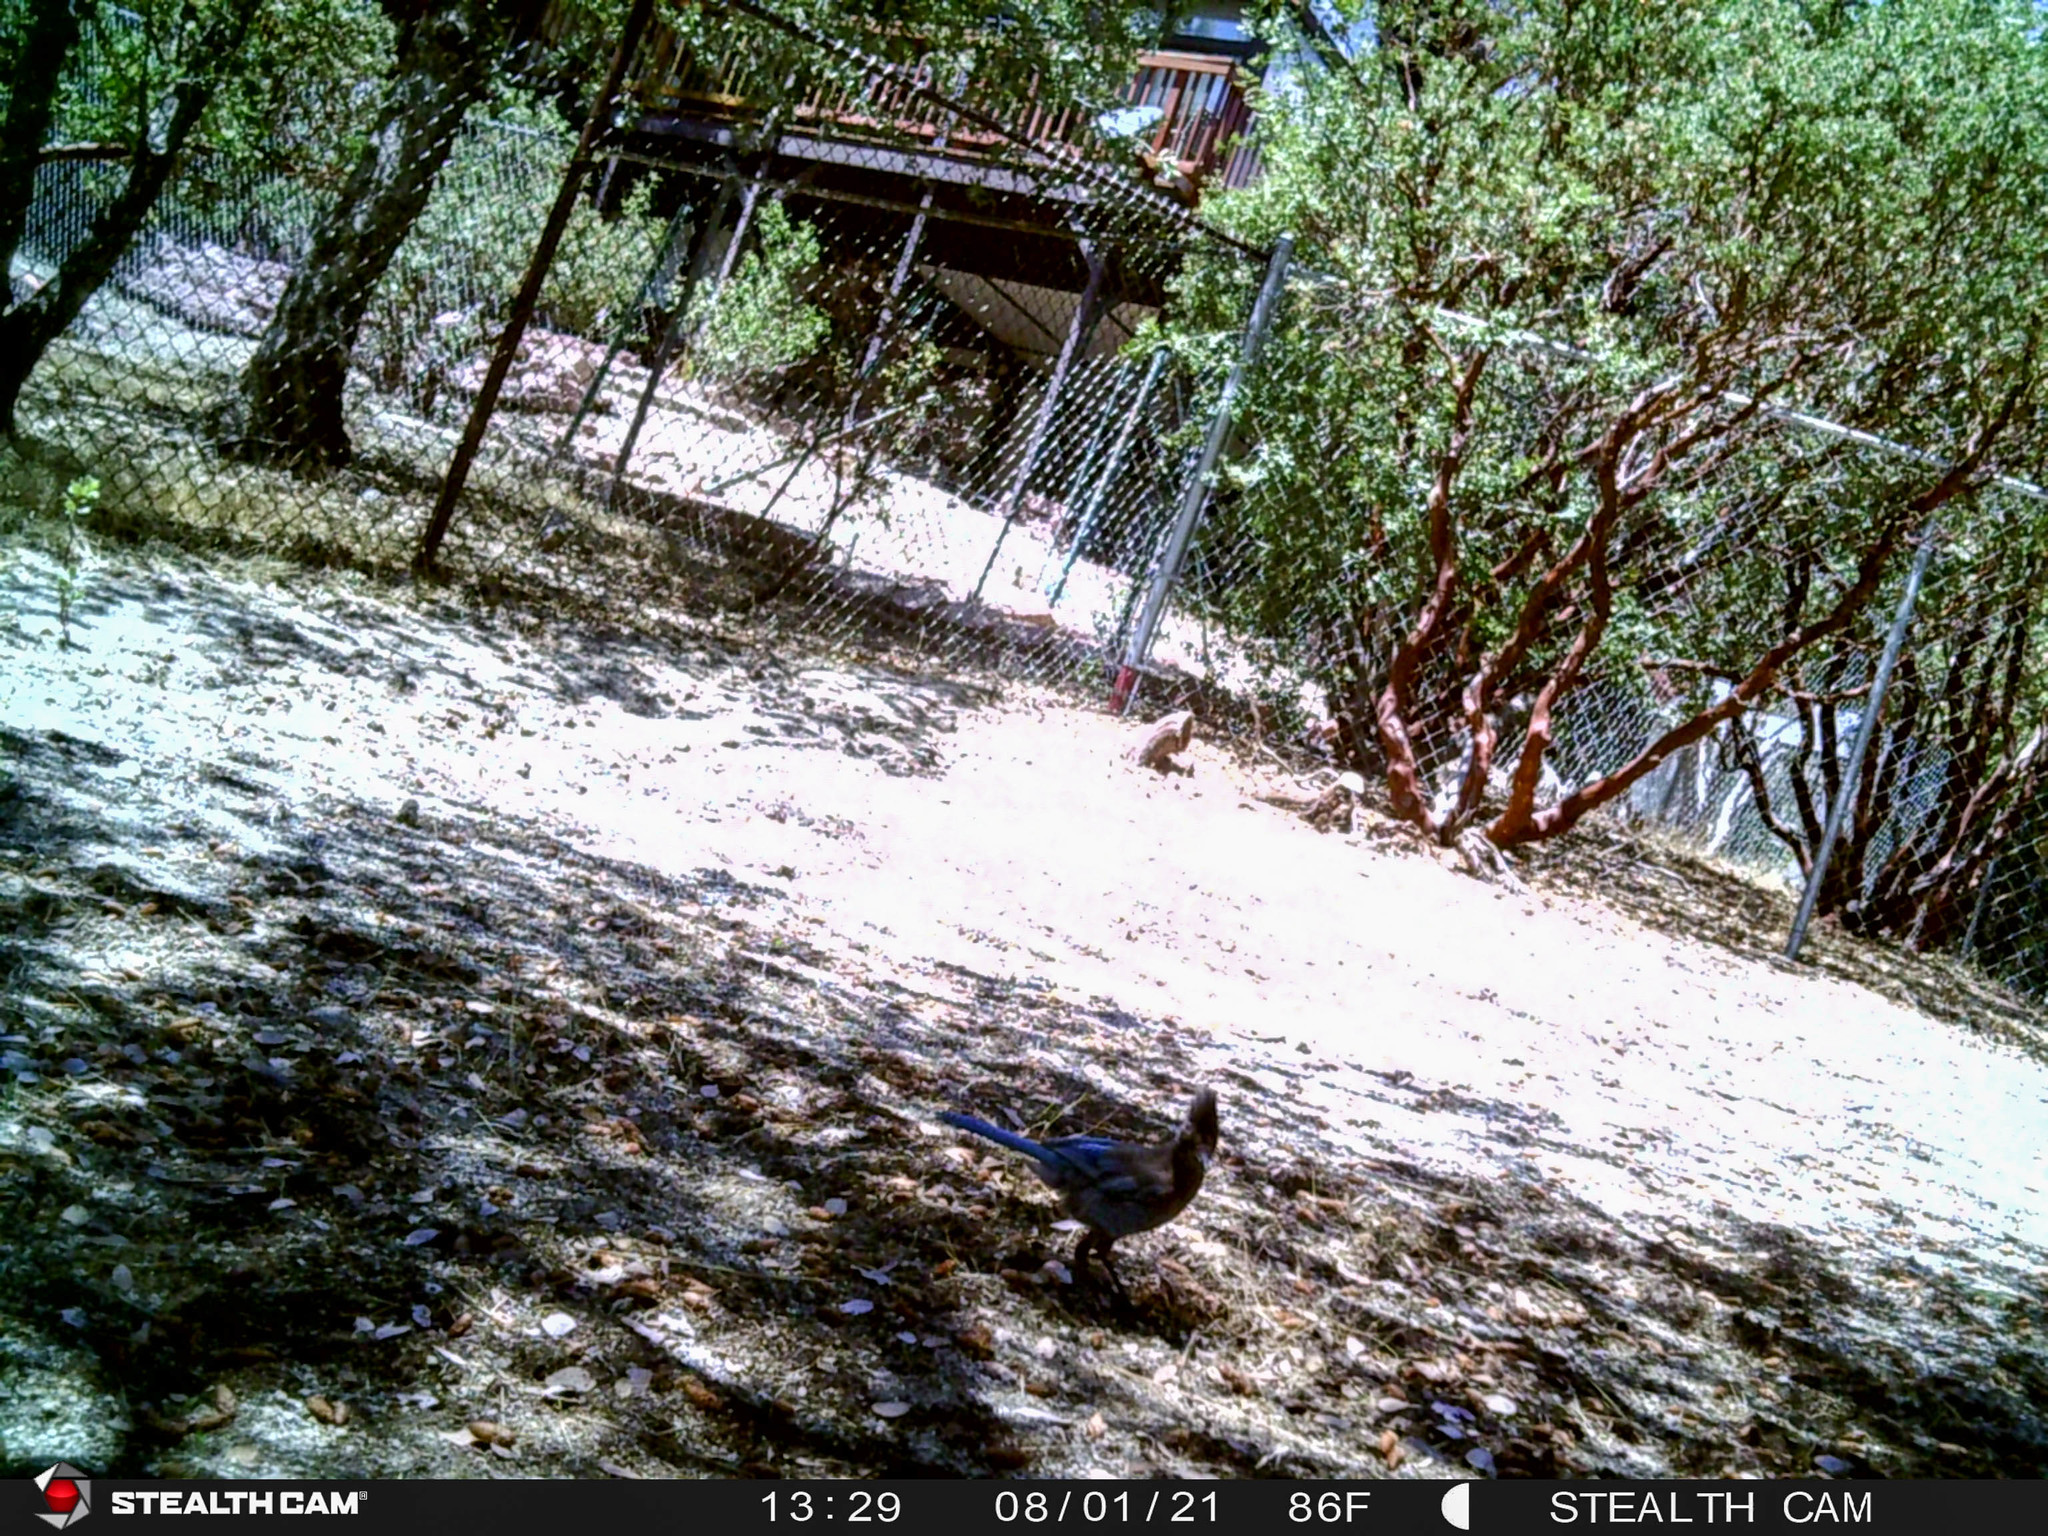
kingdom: Animalia
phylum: Chordata
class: Aves
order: Passeriformes
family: Corvidae
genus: Cyanocitta
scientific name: Cyanocitta stelleri
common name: Steller's jay
